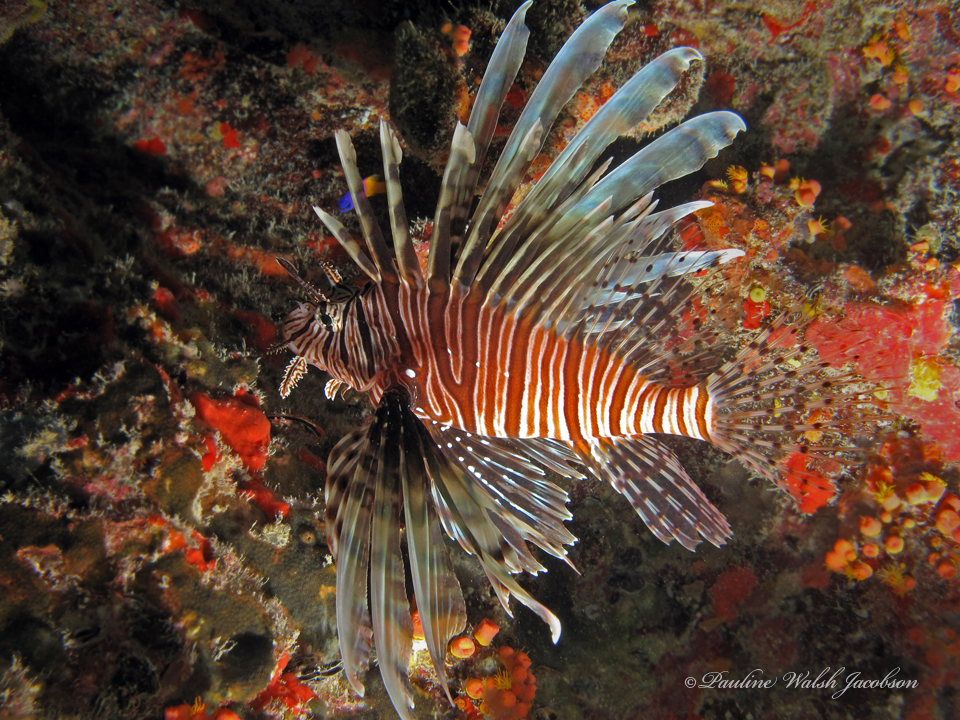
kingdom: Animalia
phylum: Chordata
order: Scorpaeniformes
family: Scorpaenidae
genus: Pterois
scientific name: Pterois volitans
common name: Lionfish
